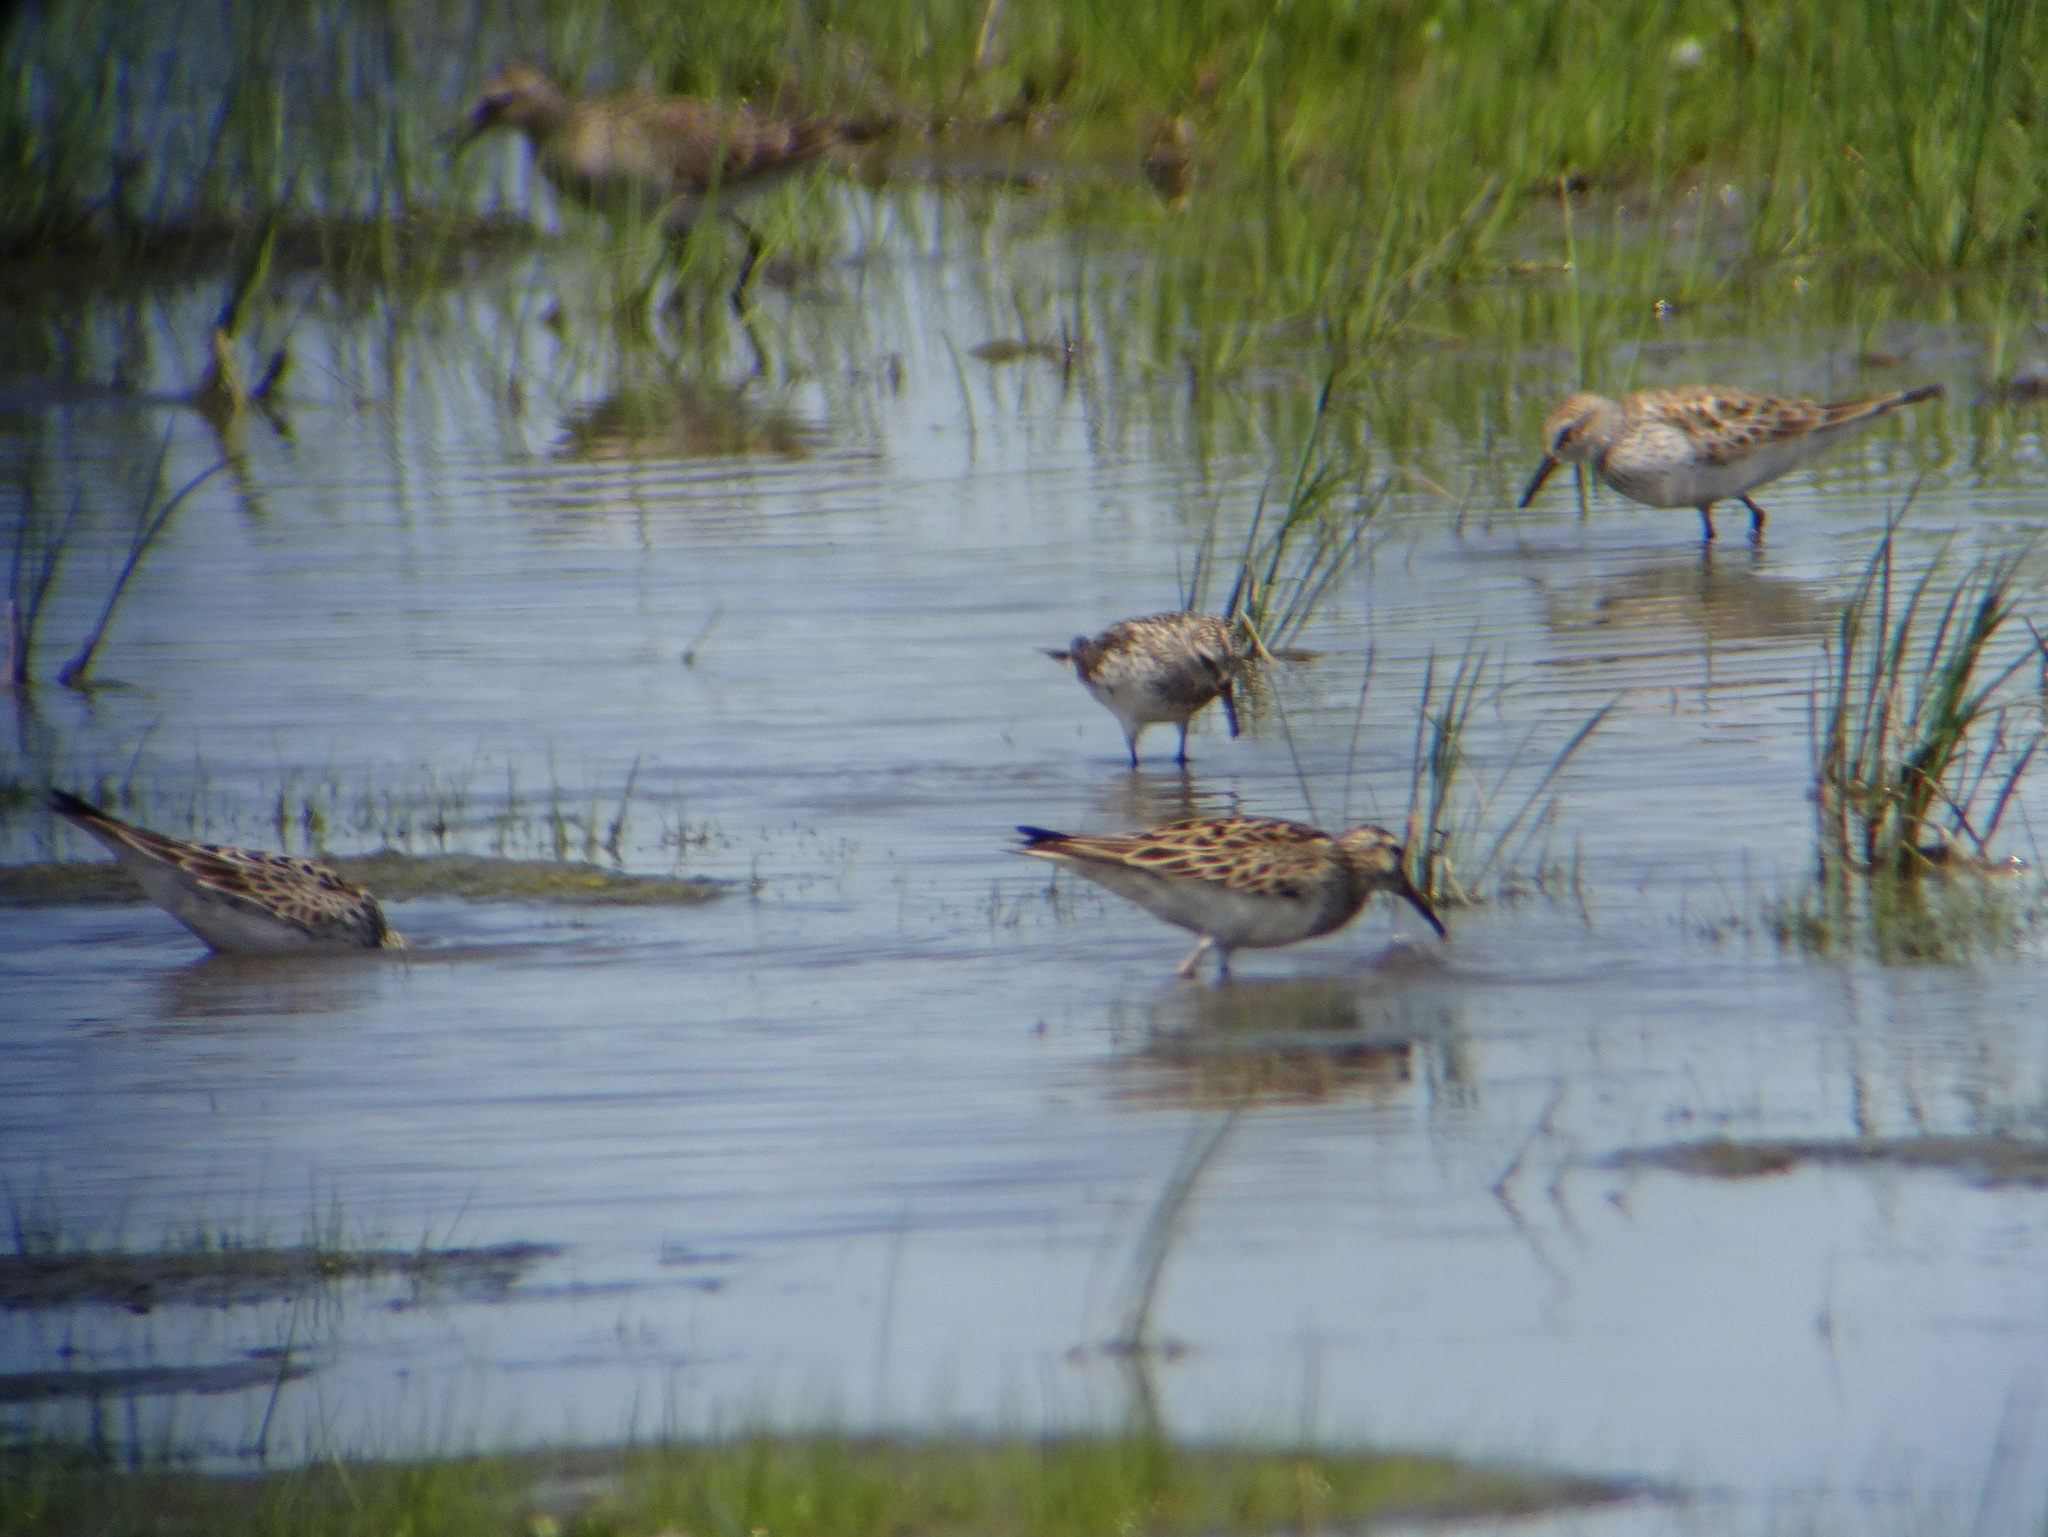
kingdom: Animalia
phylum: Chordata
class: Aves
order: Charadriiformes
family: Scolopacidae
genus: Calidris
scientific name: Calidris fuscicollis
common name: White-rumped sandpiper
